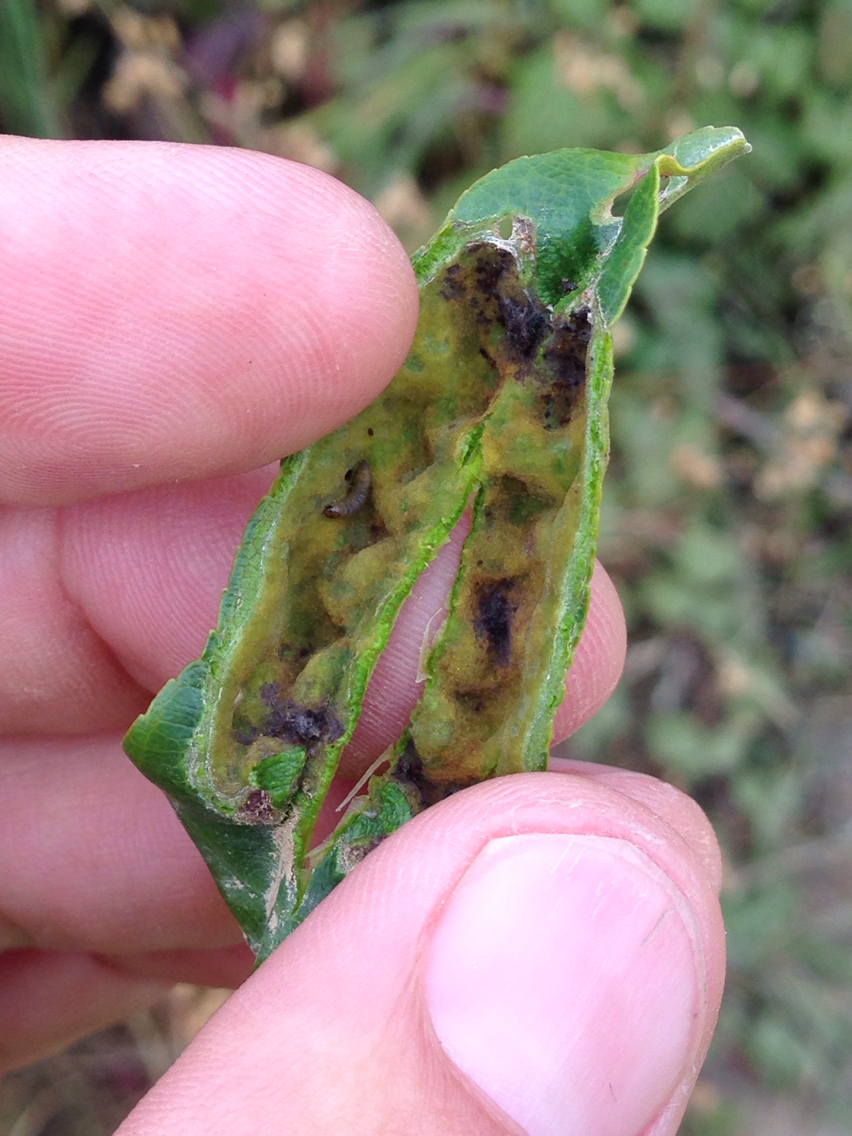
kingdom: Animalia
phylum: Arthropoda
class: Insecta
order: Lepidoptera
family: Cosmopterigidae
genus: Sorhagenia
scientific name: Sorhagenia nimbosus
